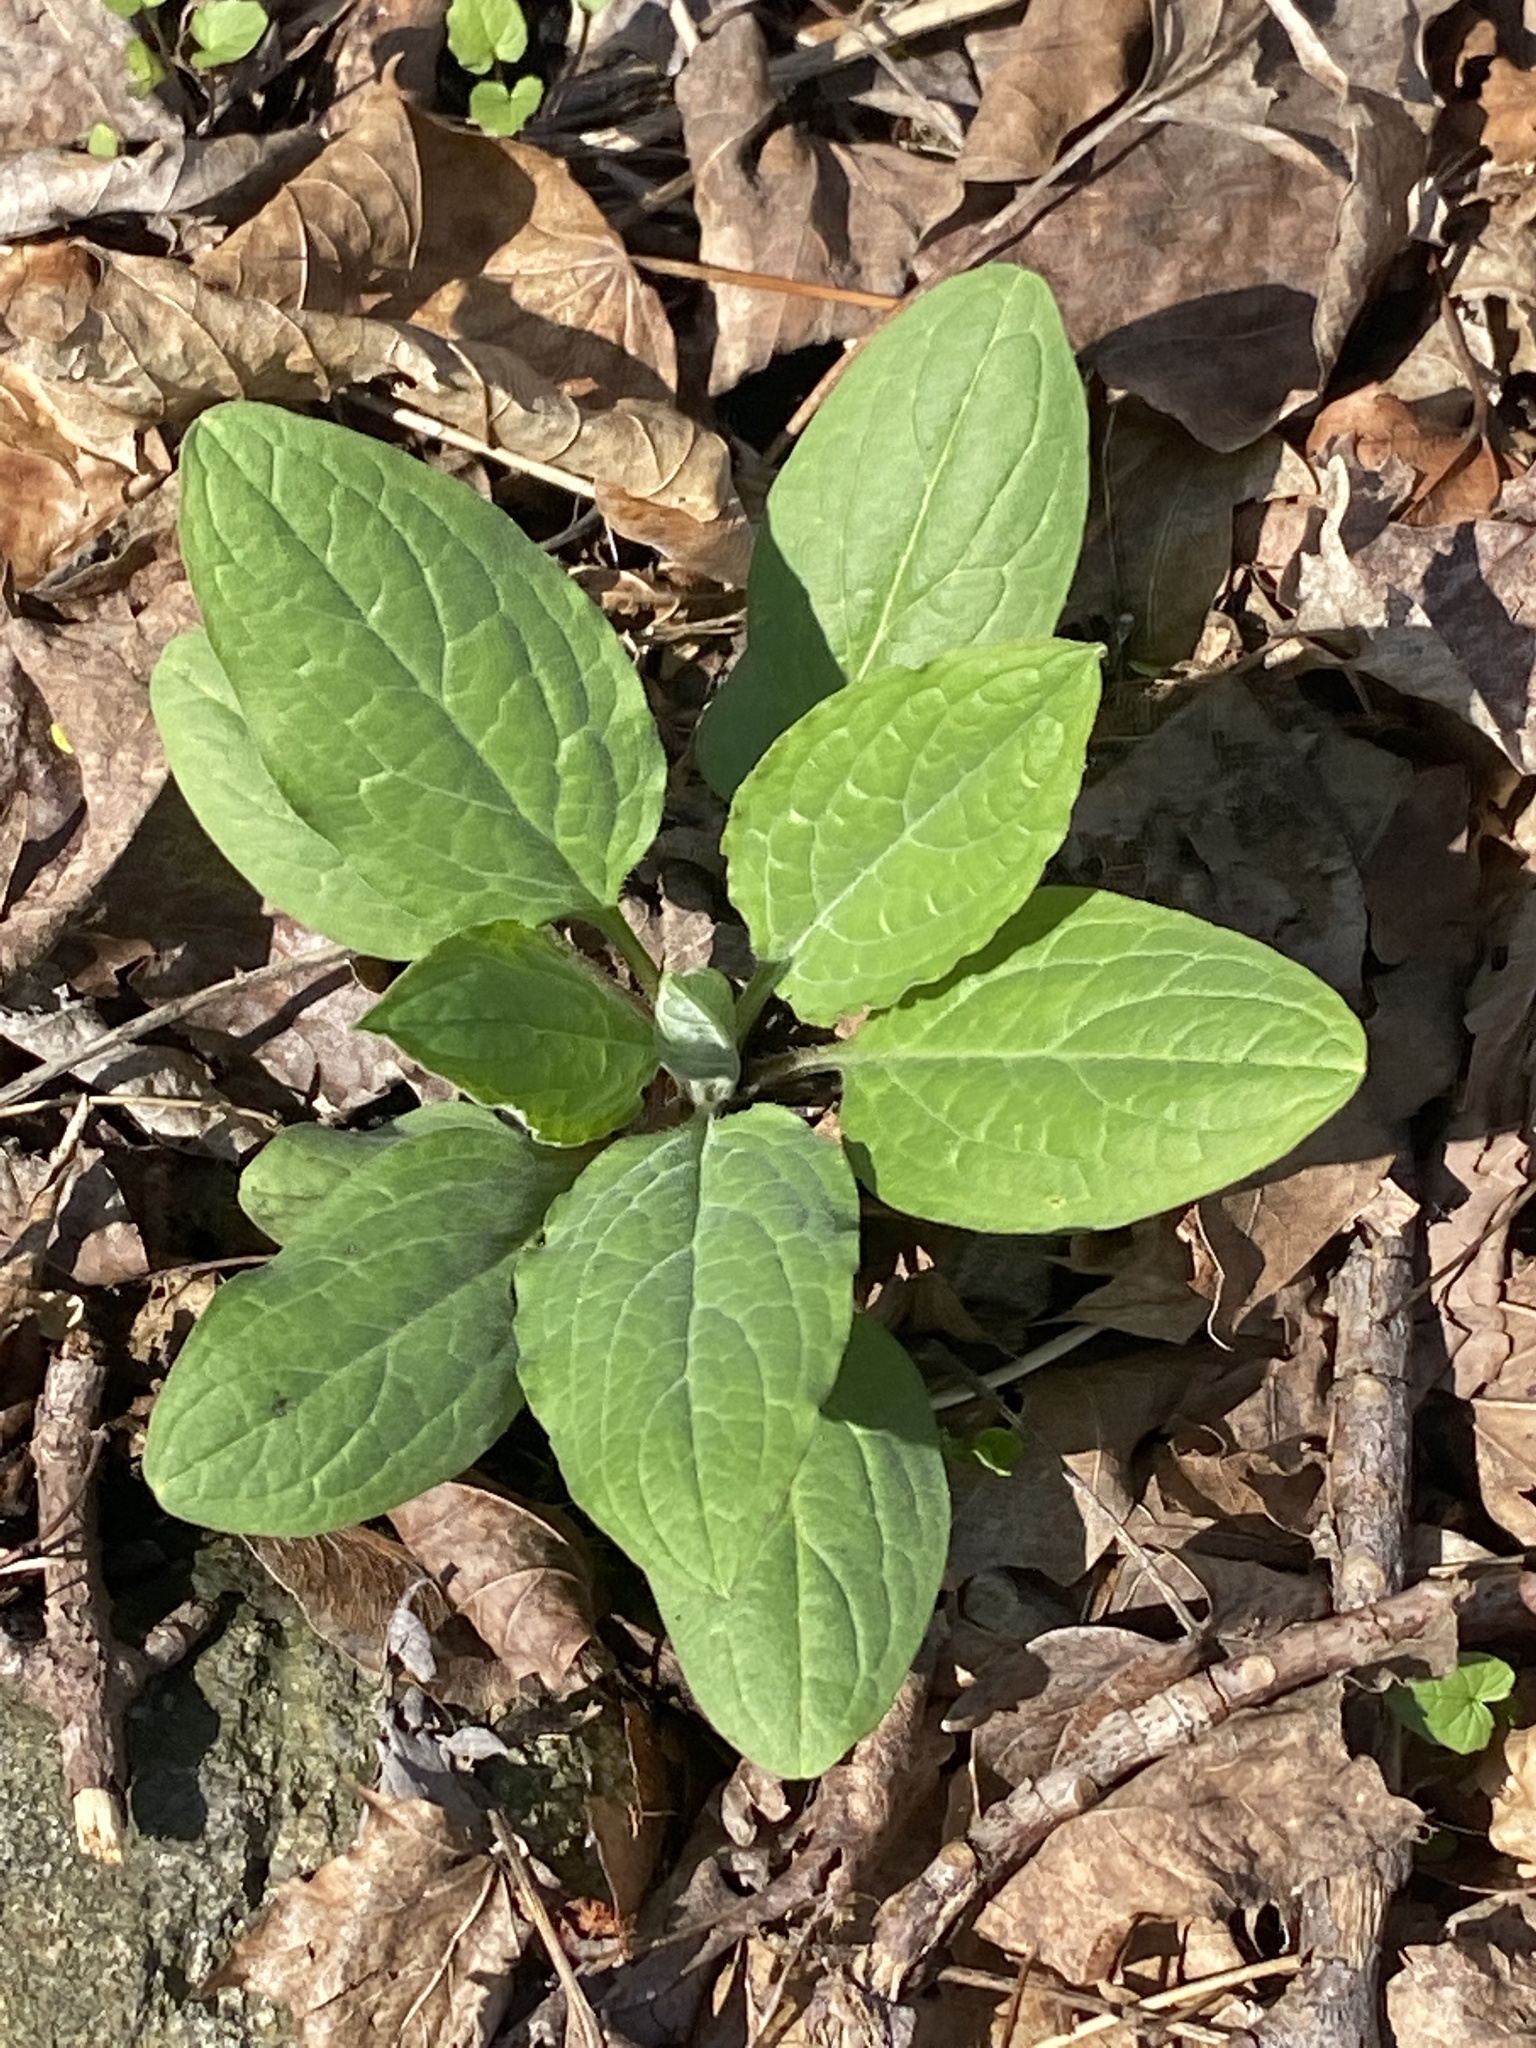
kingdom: Plantae
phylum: Tracheophyta
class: Magnoliopsida
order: Boraginales
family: Boraginaceae
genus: Hackelia
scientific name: Hackelia virginiana
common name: Beggar's-lice
